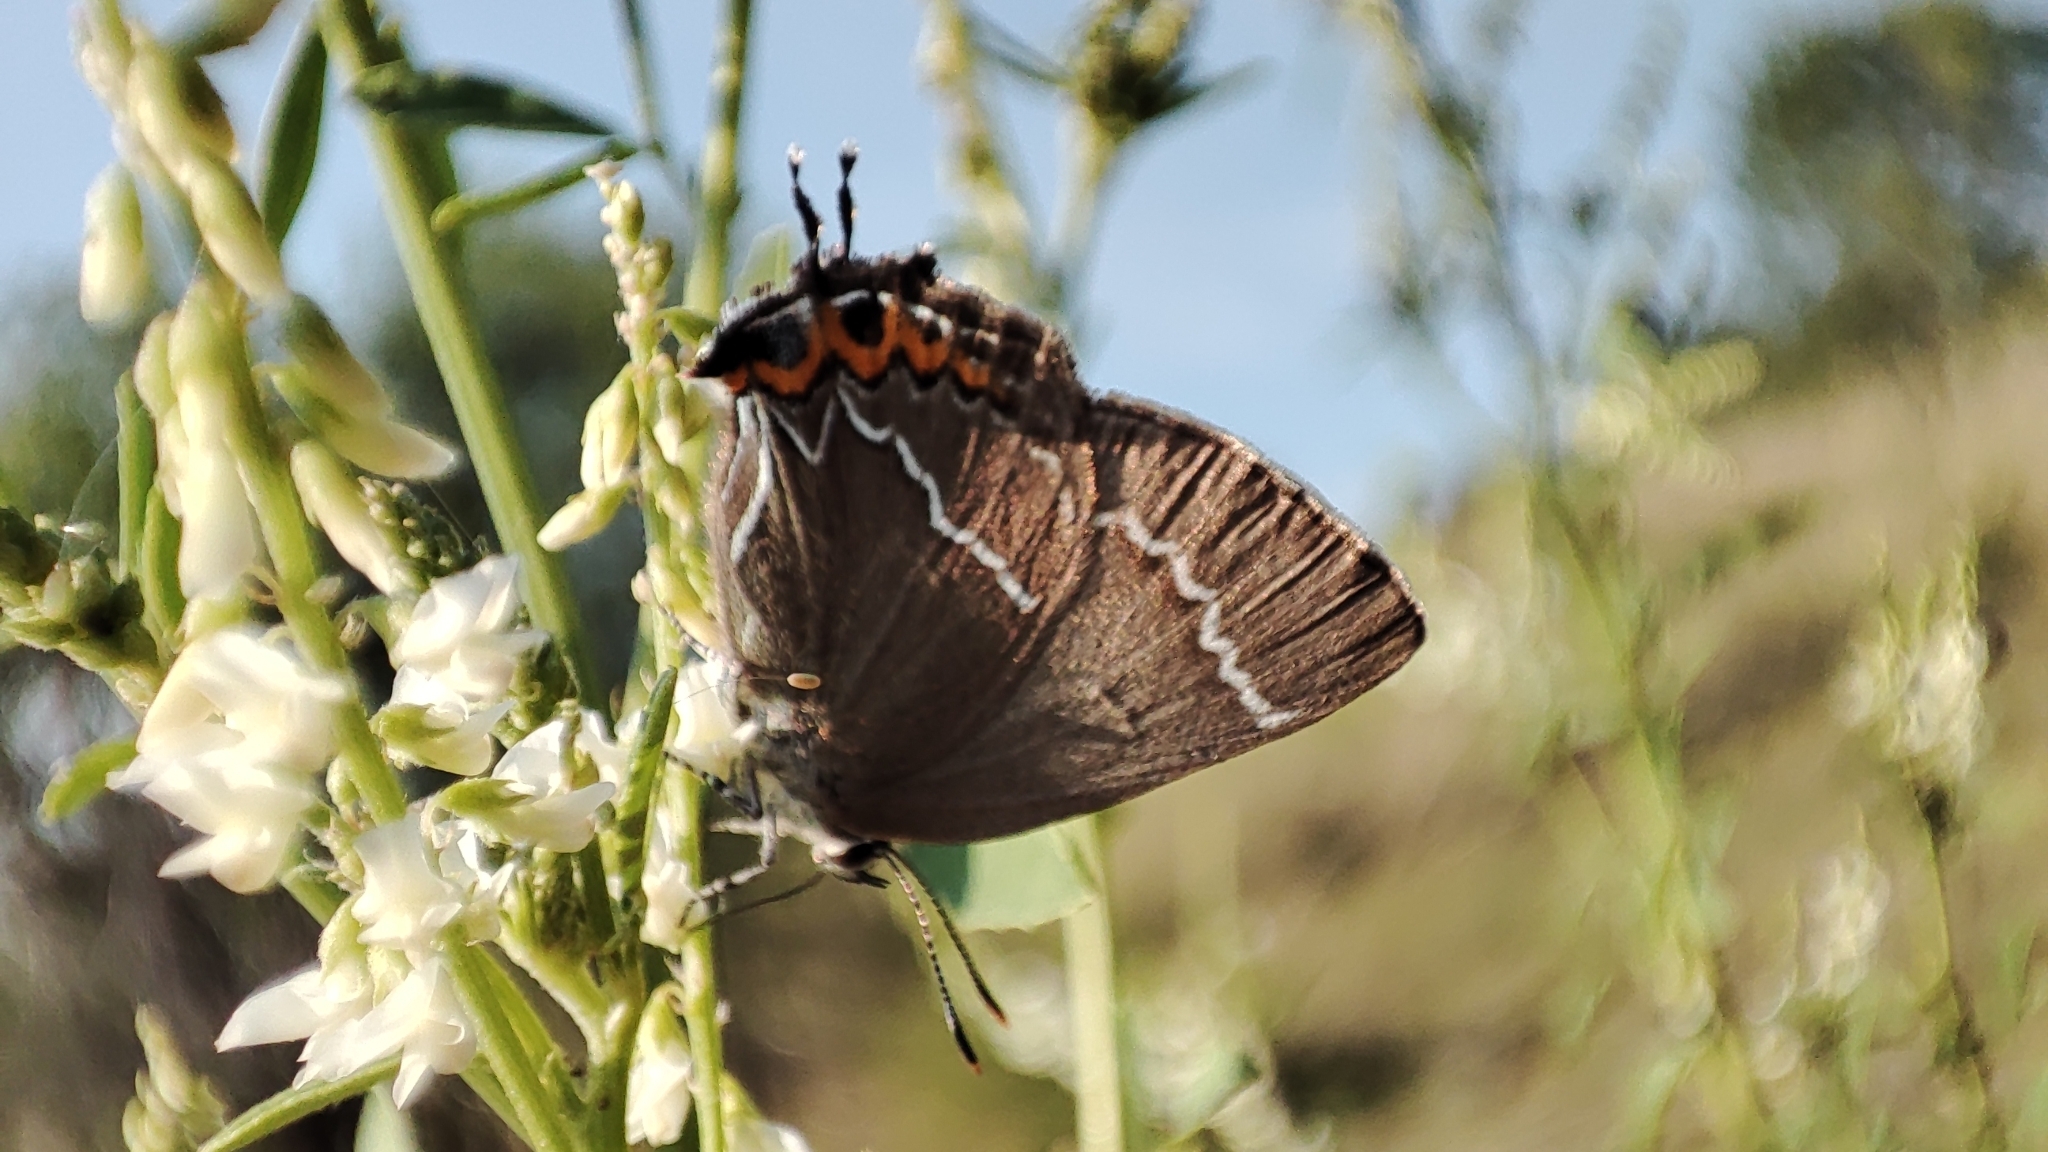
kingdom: Animalia
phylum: Arthropoda
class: Insecta
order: Lepidoptera
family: Lycaenidae
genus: Satyrium
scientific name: Satyrium w-album
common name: White-letter hairstreak
